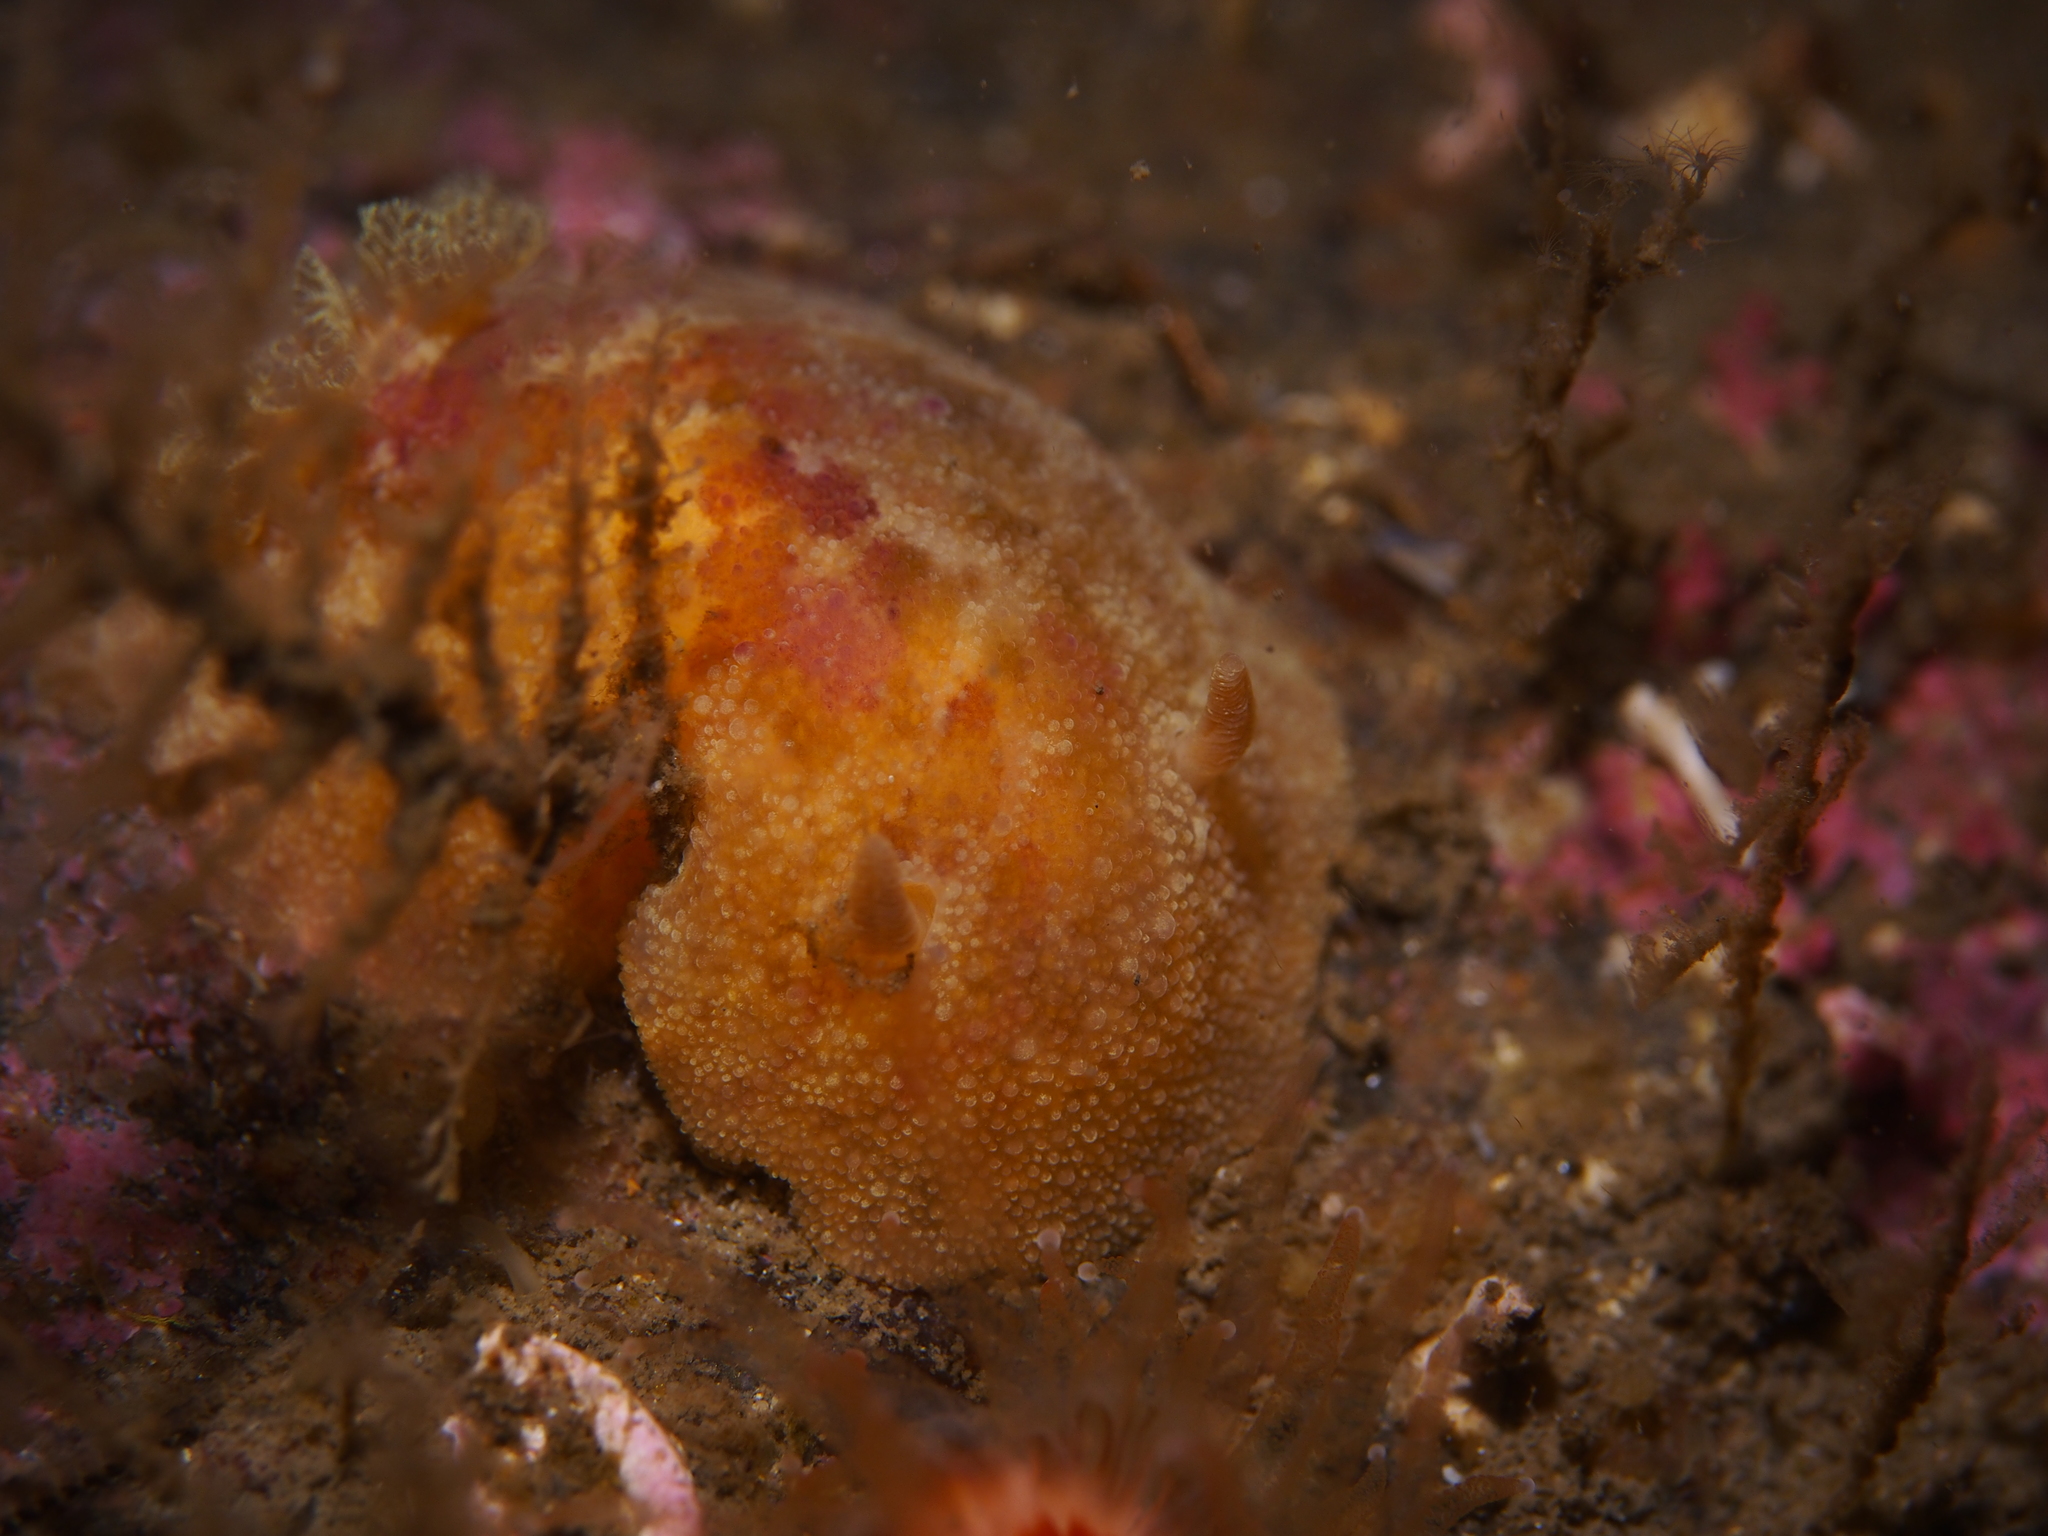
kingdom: Animalia
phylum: Mollusca
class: Gastropoda
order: Nudibranchia
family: Dorididae
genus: Doris
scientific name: Doris pseudoargus
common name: Sea lemon
